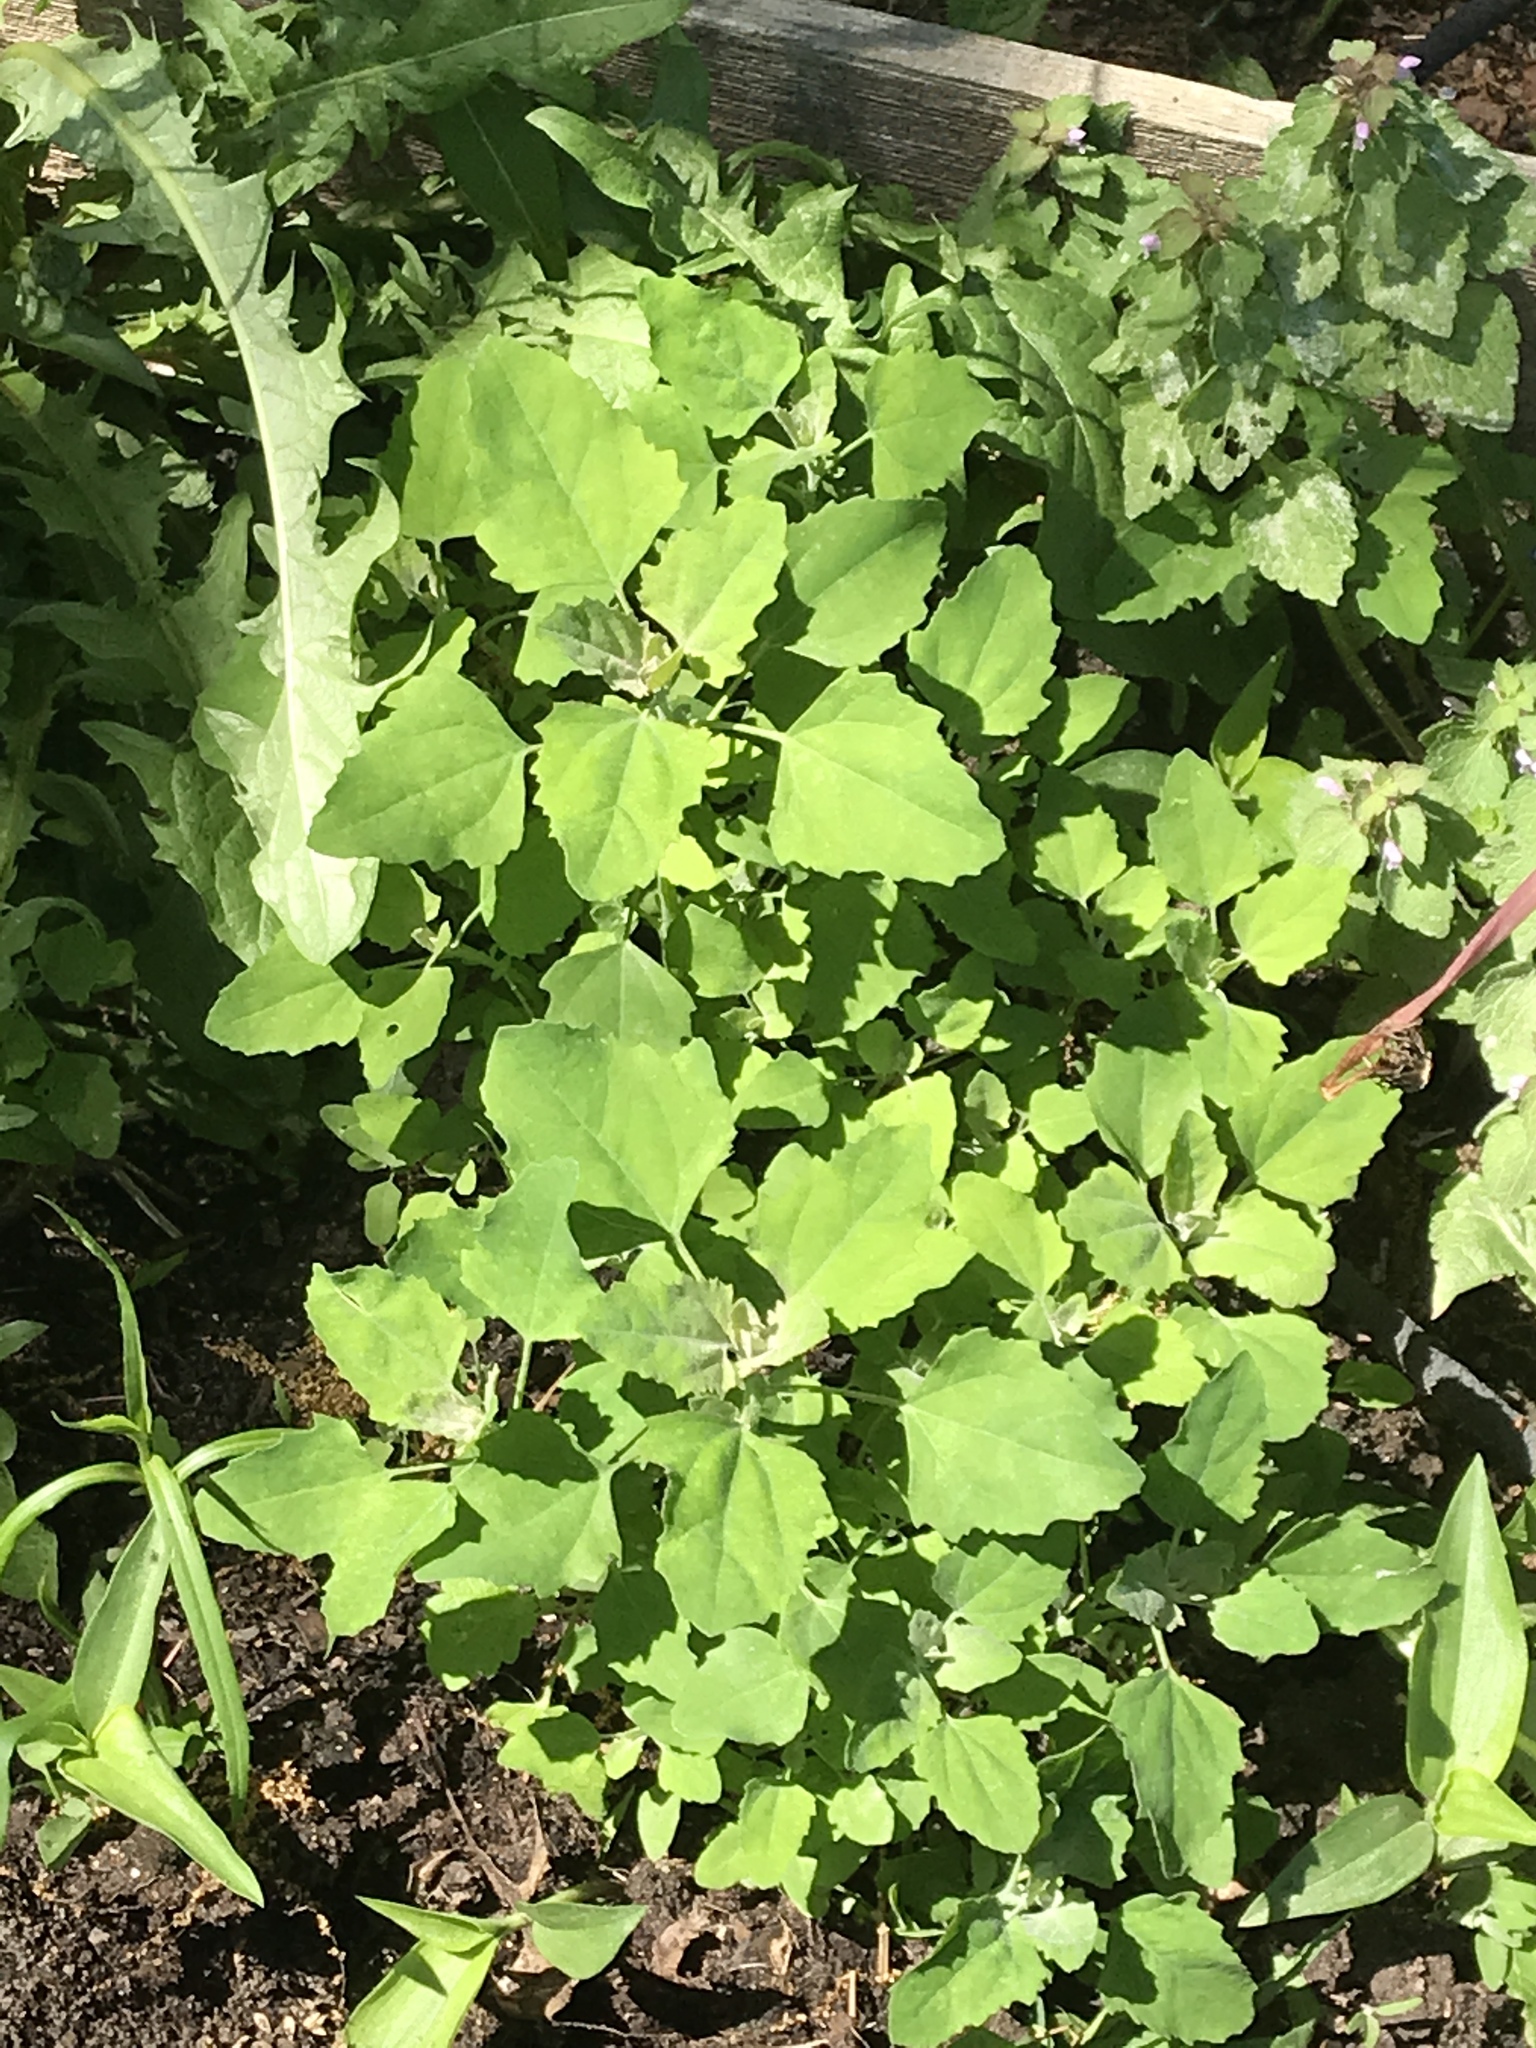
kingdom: Plantae
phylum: Tracheophyta
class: Magnoliopsida
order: Caryophyllales
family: Amaranthaceae
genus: Chenopodium
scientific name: Chenopodium album
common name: Fat-hen
